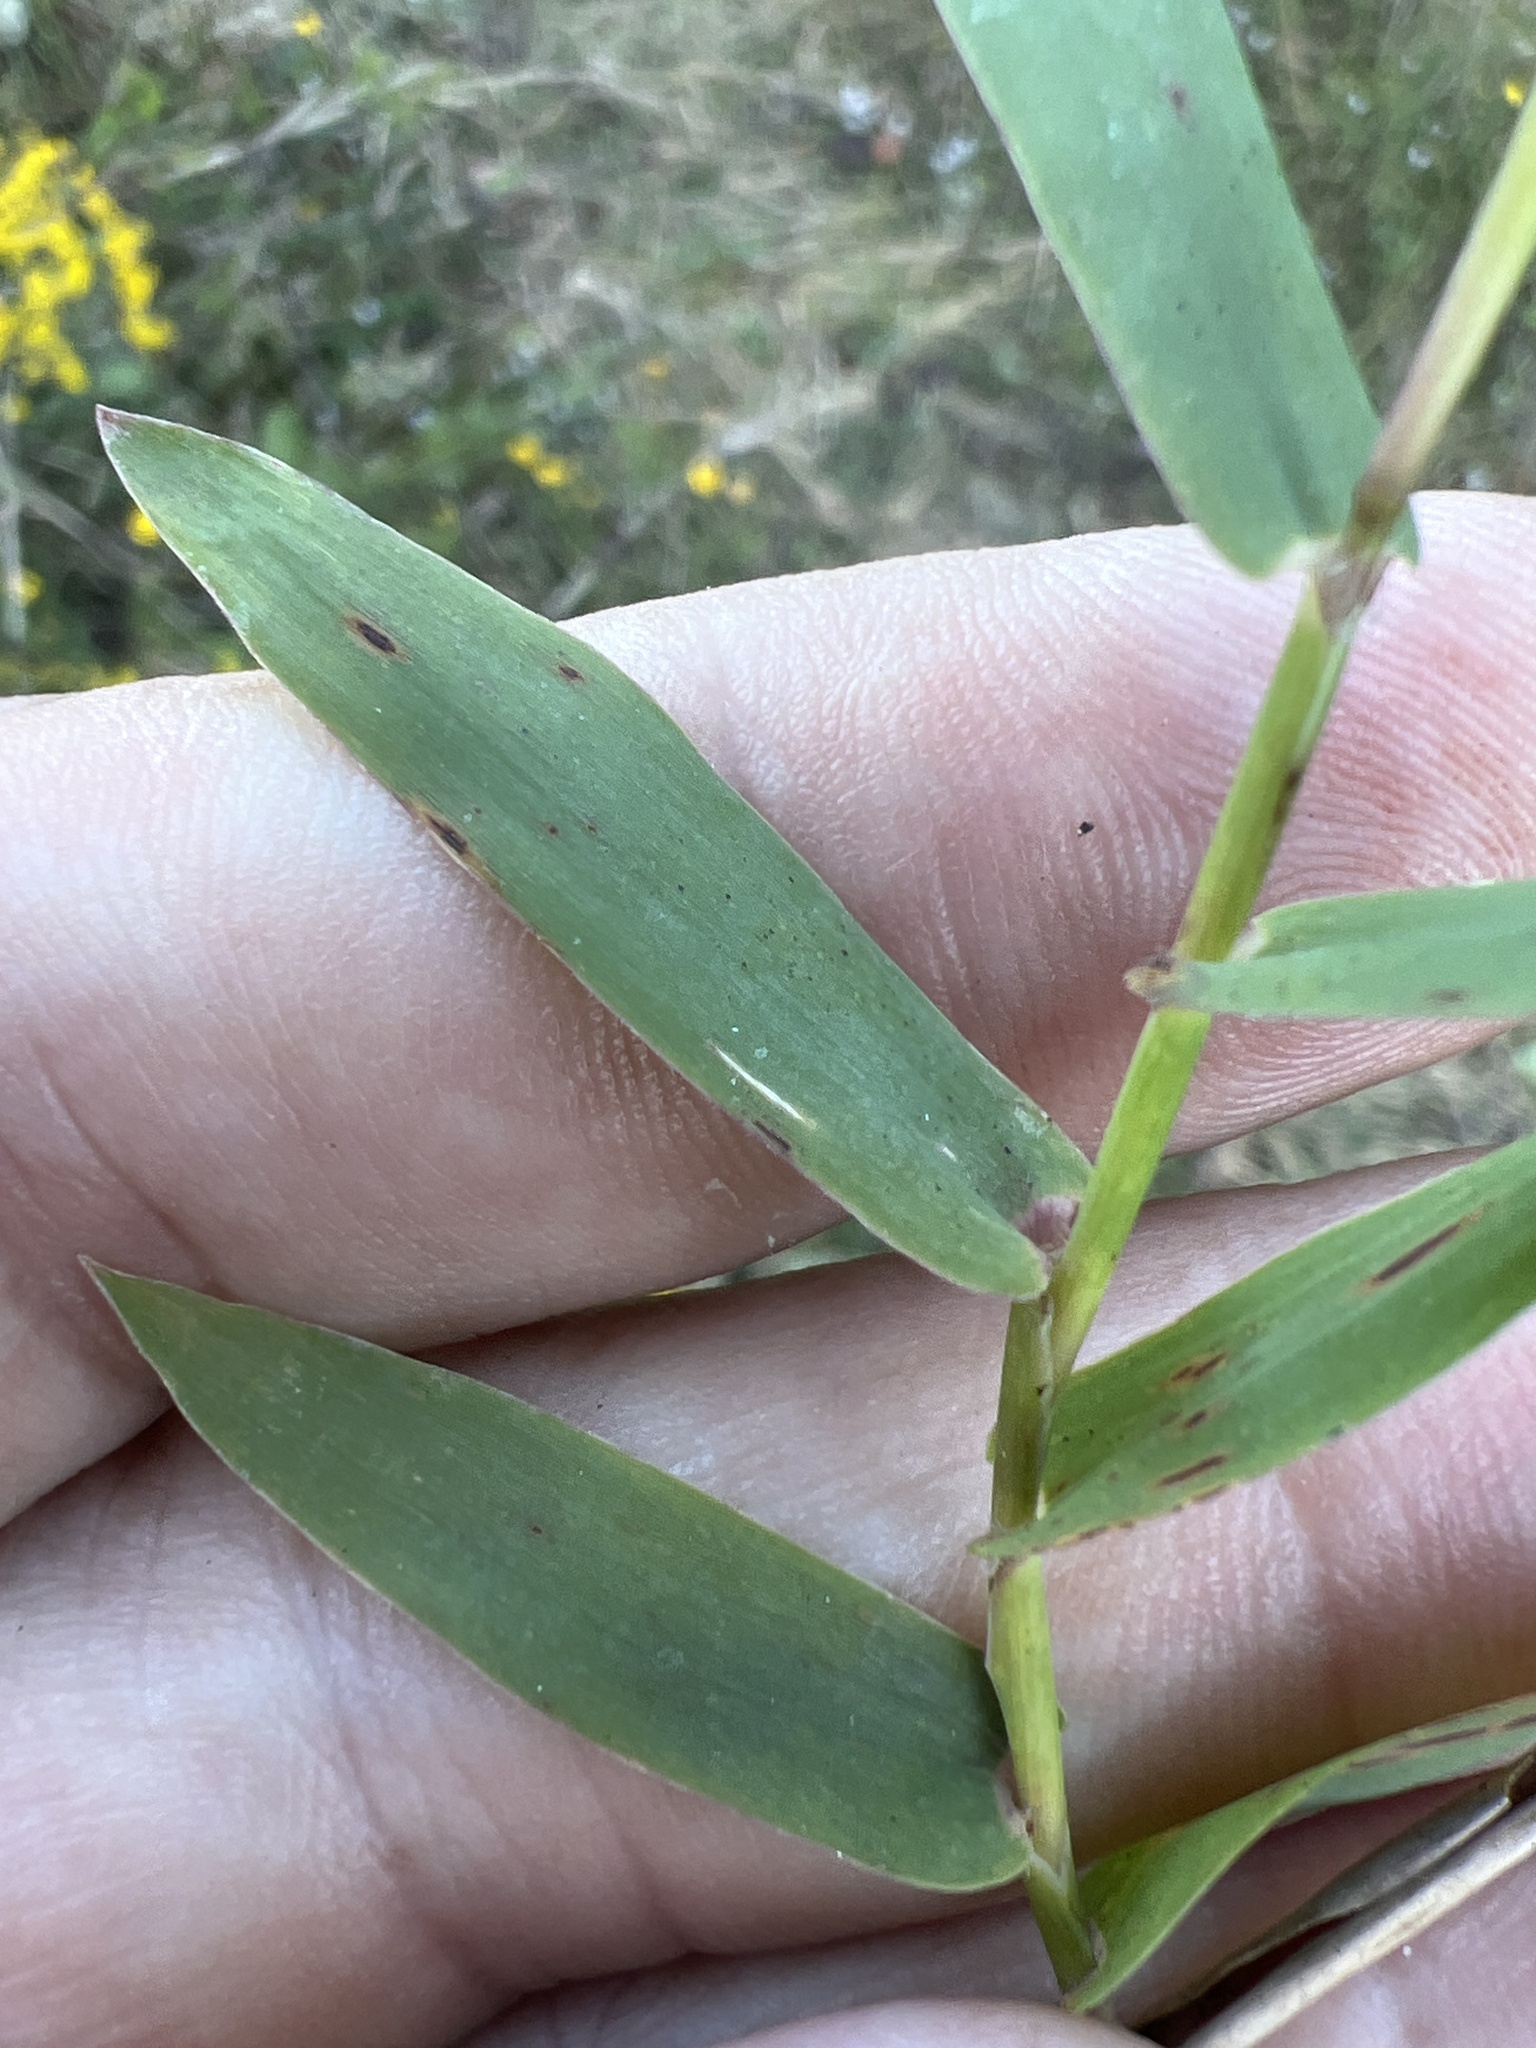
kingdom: Plantae
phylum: Tracheophyta
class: Liliopsida
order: Poales
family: Poaceae
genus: Gymnopogon
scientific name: Gymnopogon brevifolius
